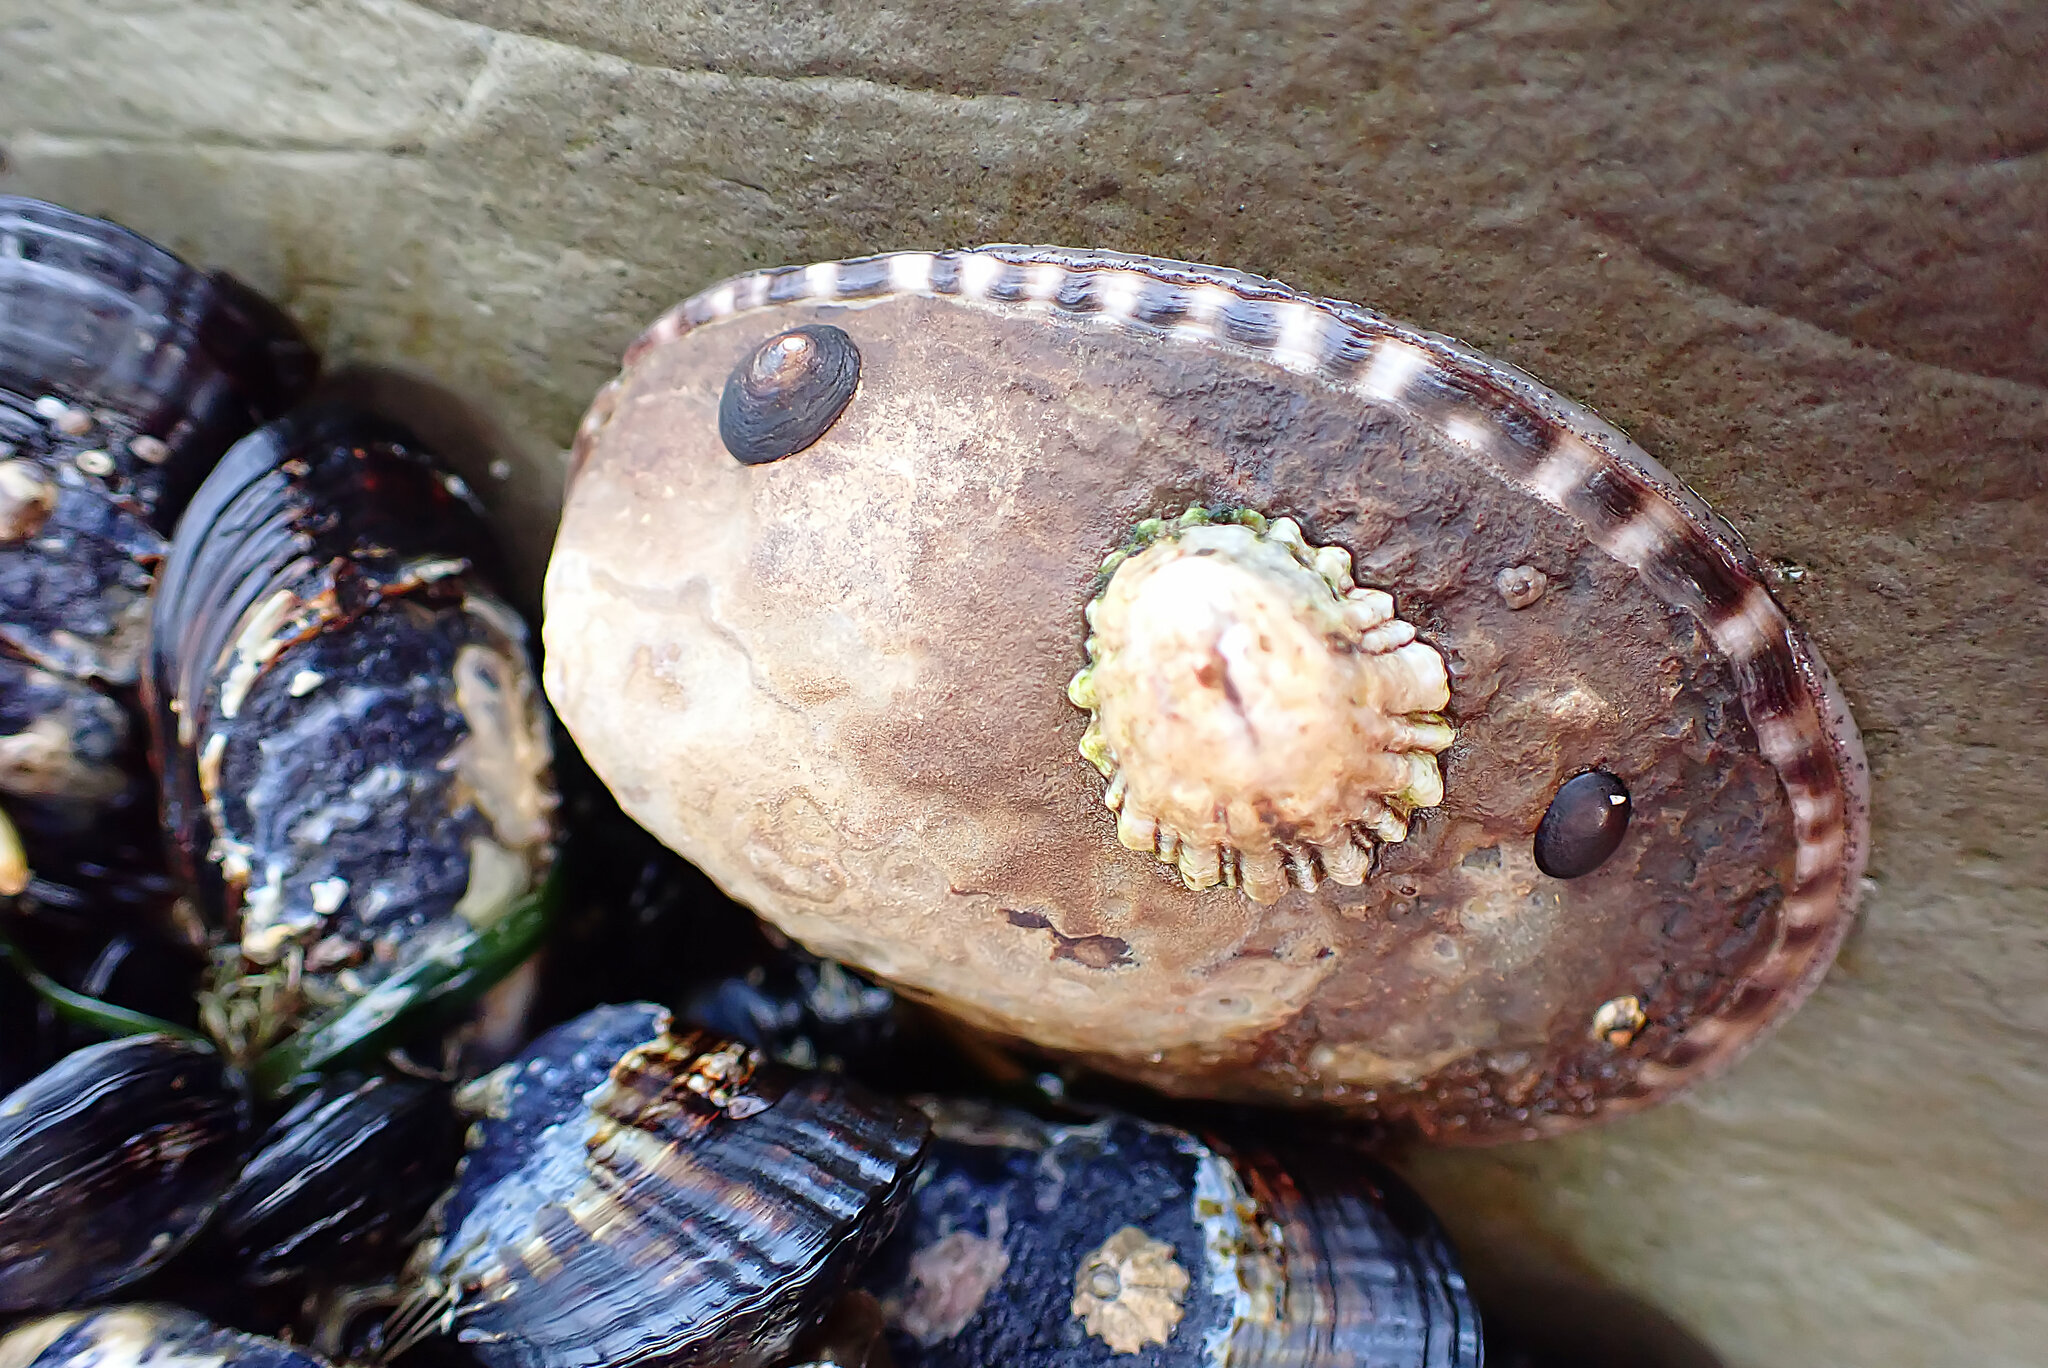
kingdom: Animalia
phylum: Mollusca
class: Gastropoda
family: Lottiidae
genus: Lottia
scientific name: Lottia scabra
